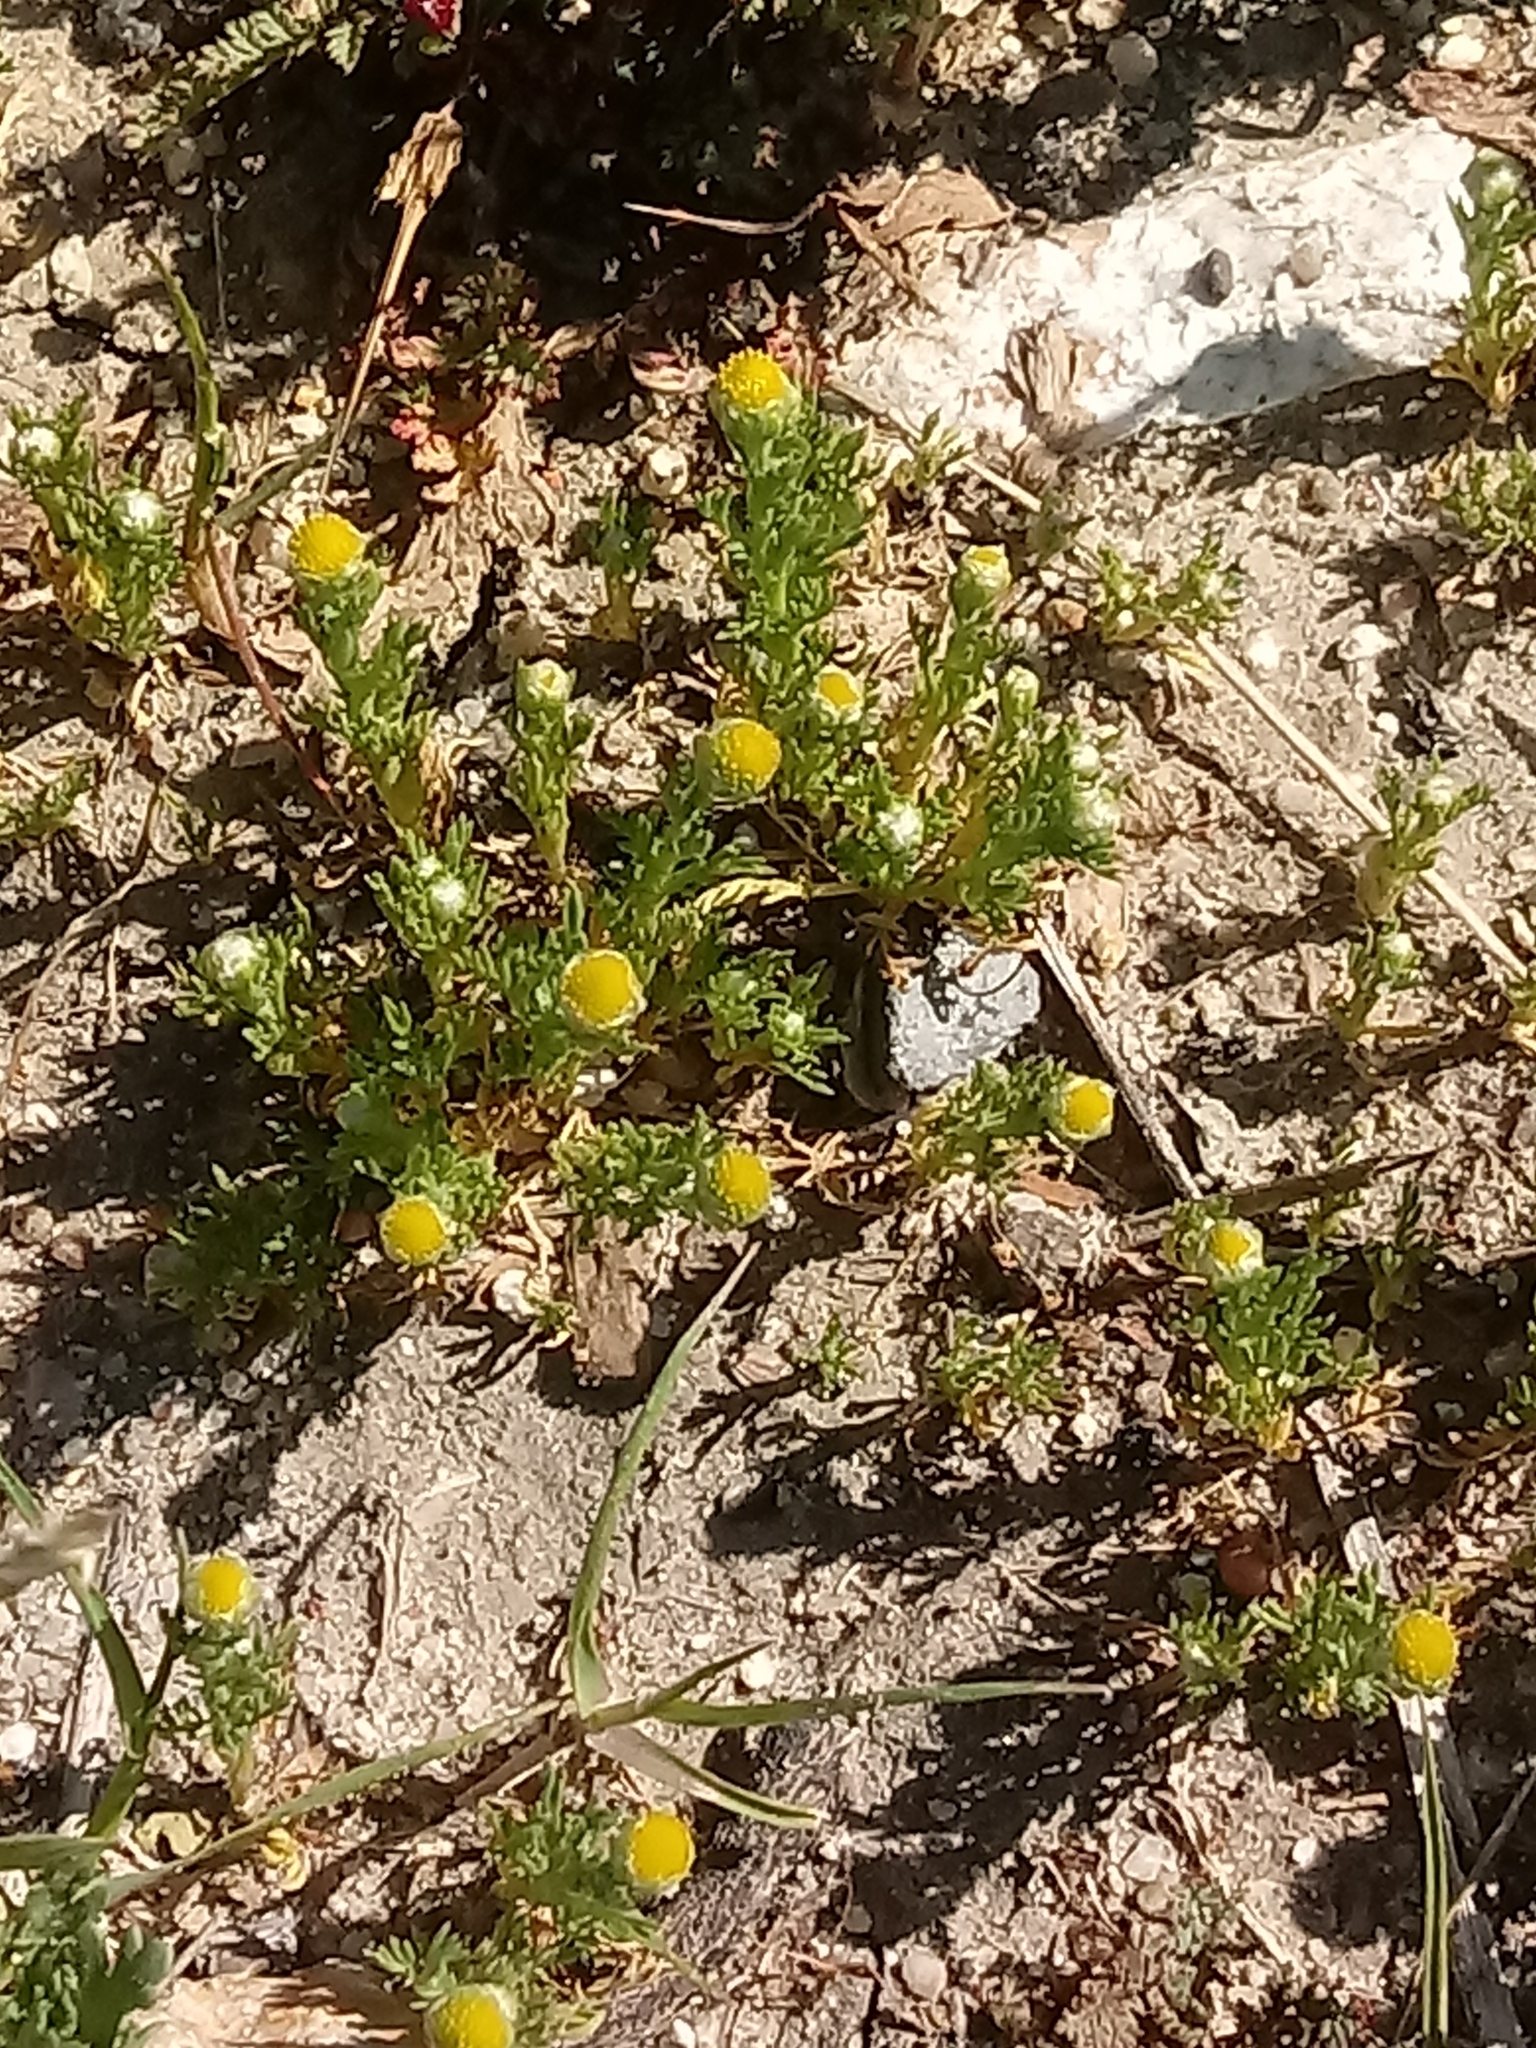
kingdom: Plantae
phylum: Tracheophyta
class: Magnoliopsida
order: Asterales
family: Asteraceae
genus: Matricaria
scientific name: Matricaria discoidea
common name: Disc mayweed
